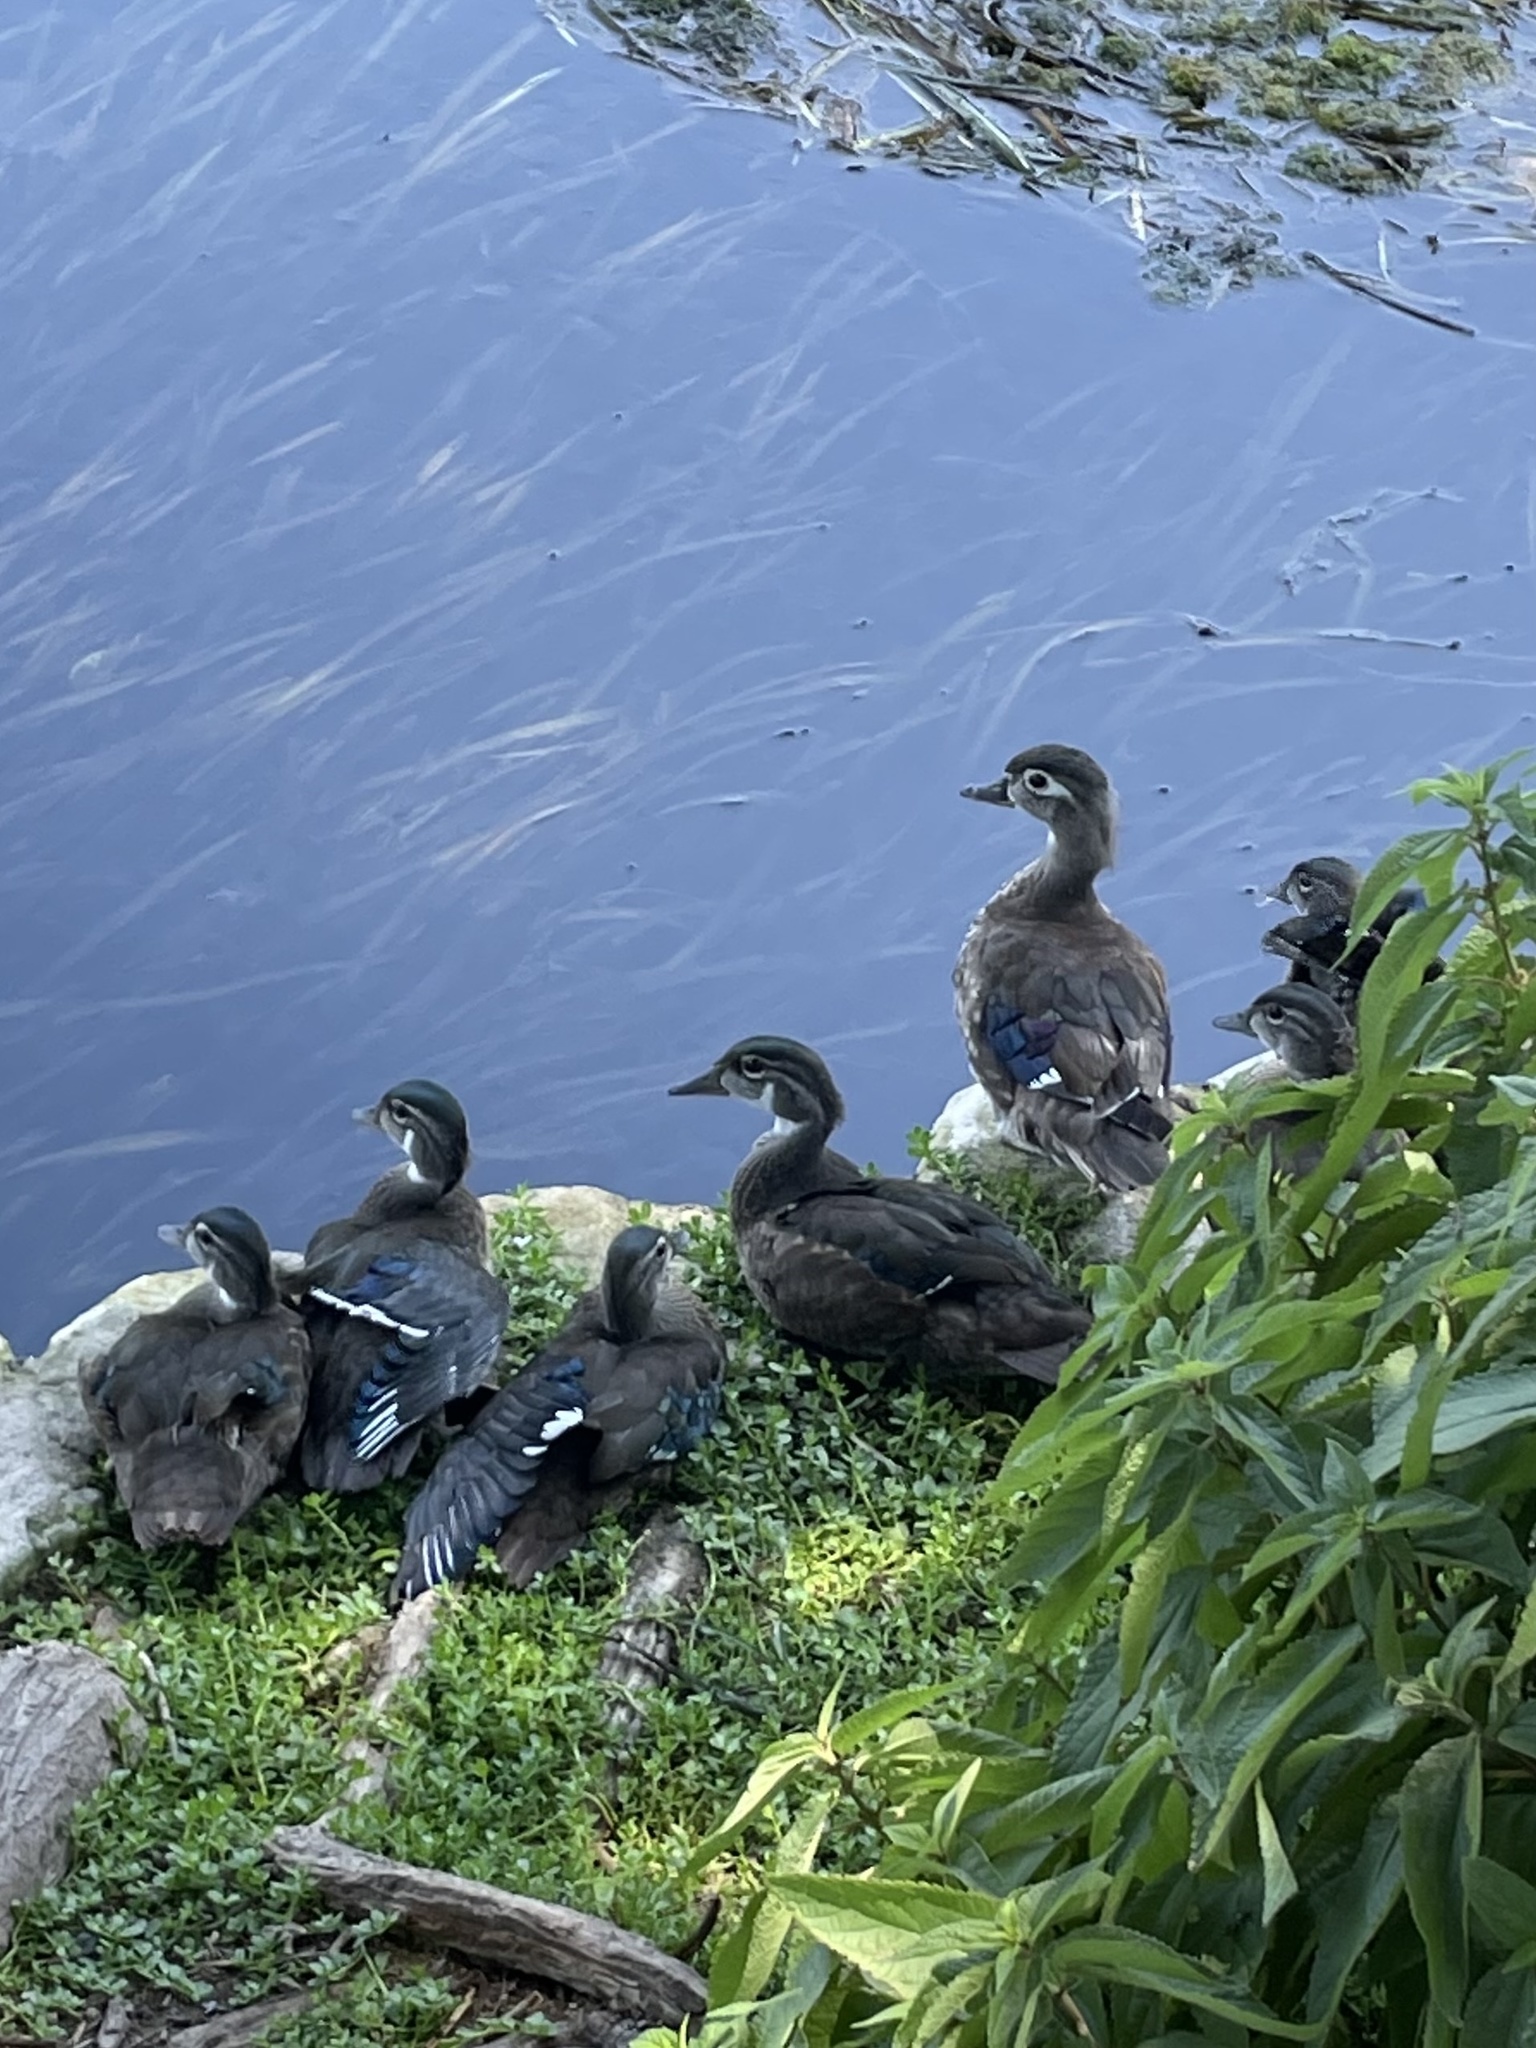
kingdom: Animalia
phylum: Chordata
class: Aves
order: Anseriformes
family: Anatidae
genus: Aix
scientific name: Aix sponsa
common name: Wood duck
